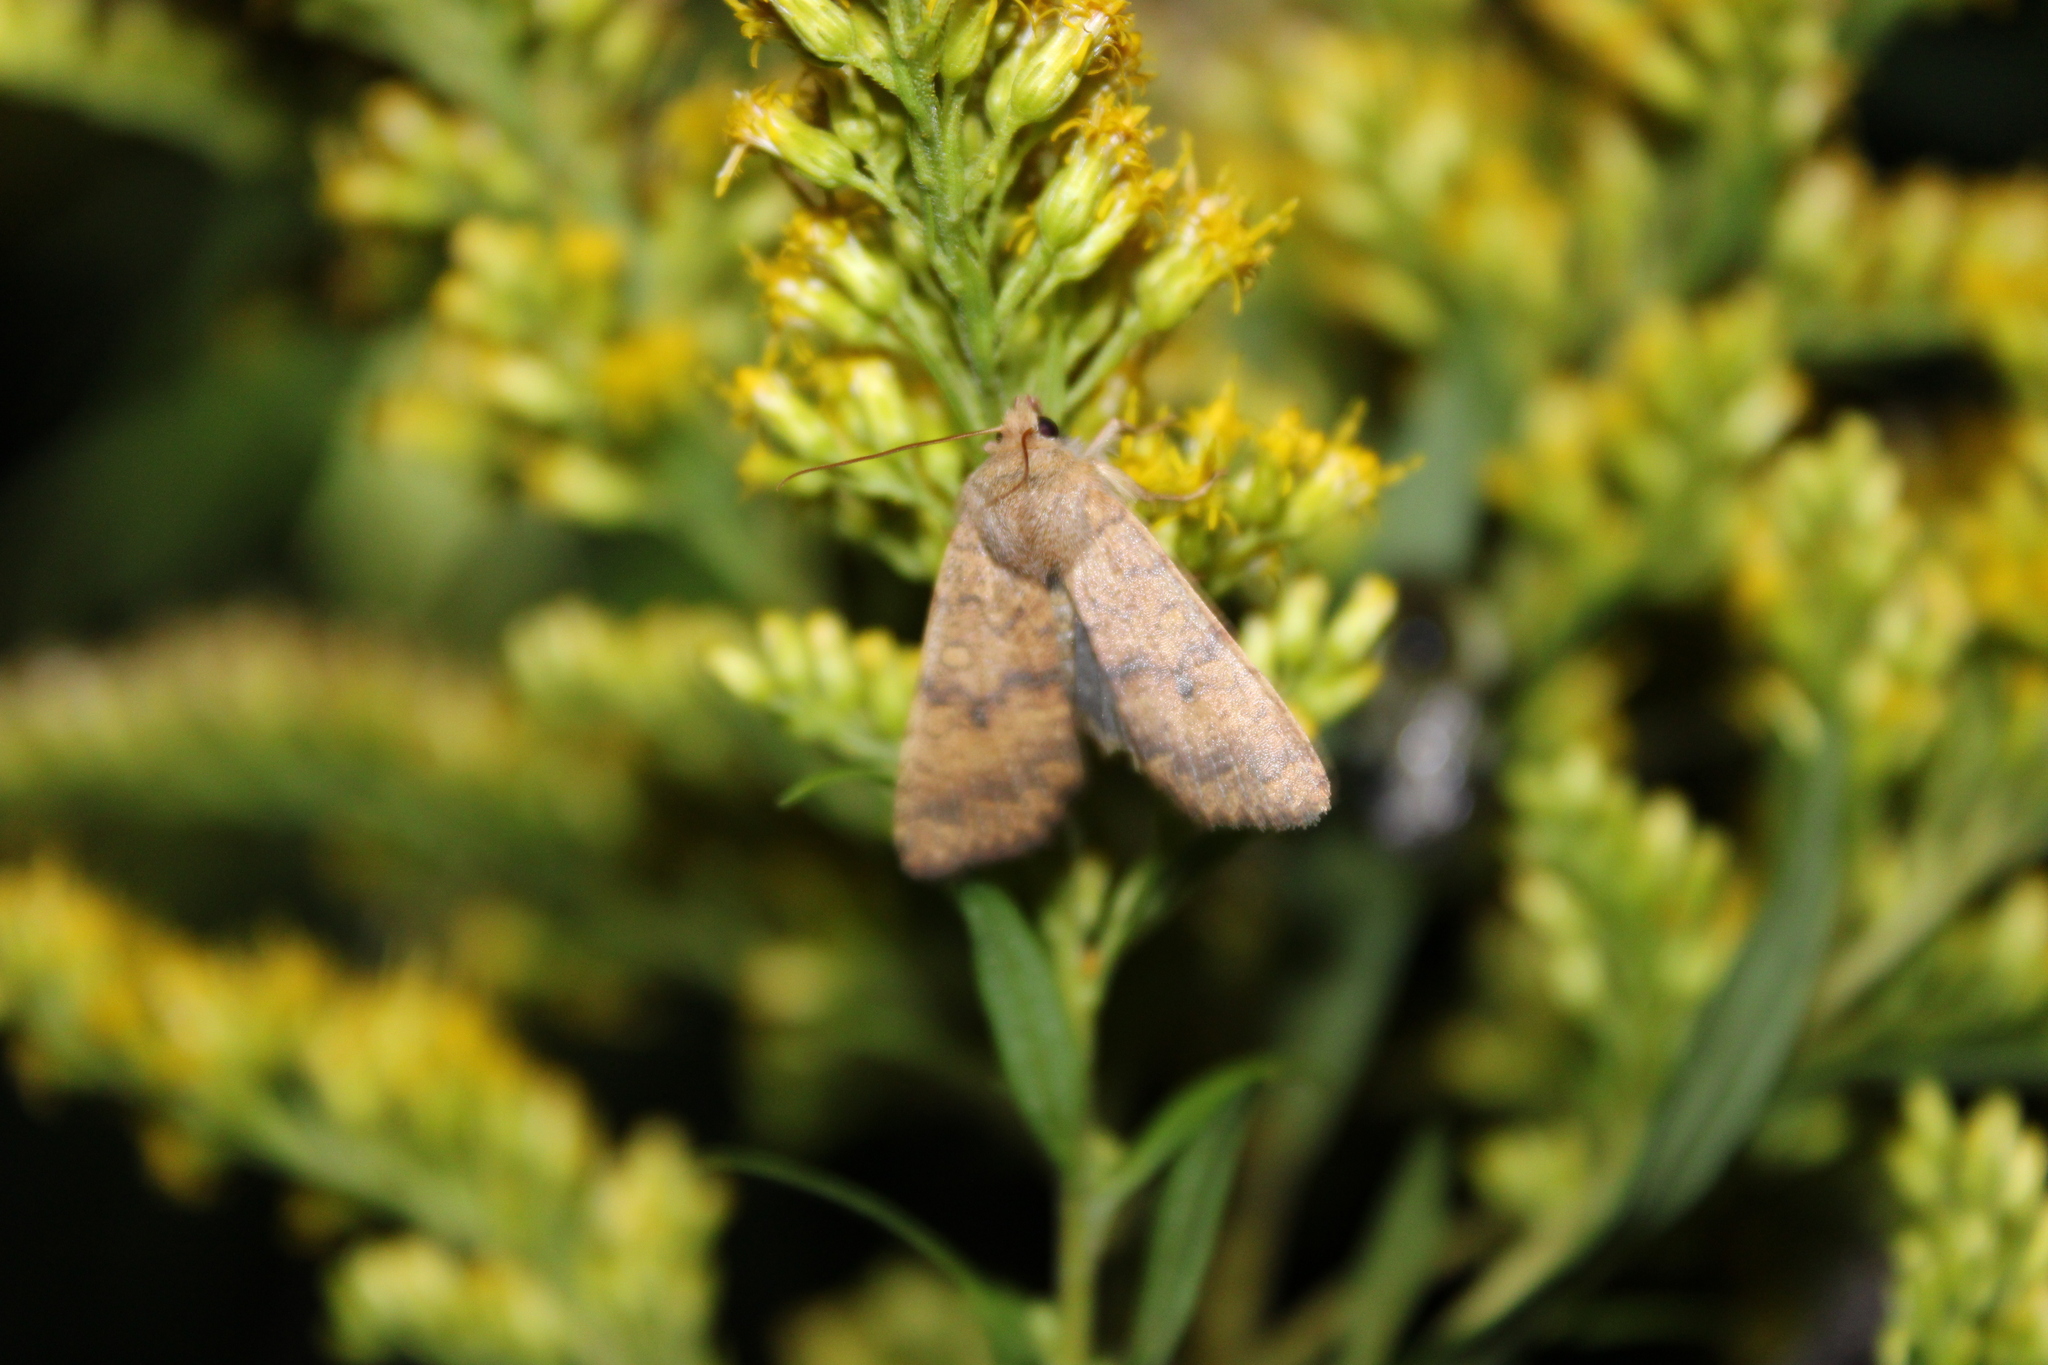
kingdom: Animalia
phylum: Arthropoda
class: Insecta
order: Lepidoptera
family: Noctuidae
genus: Agrochola
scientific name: Agrochola bicolorago
